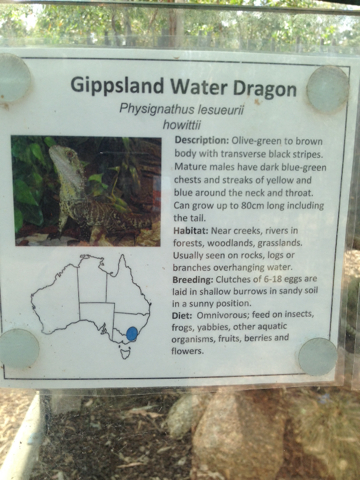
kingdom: Animalia
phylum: Chordata
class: Squamata
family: Agamidae
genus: Intellagama
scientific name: Intellagama lesueurii
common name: Eastern water dragon
